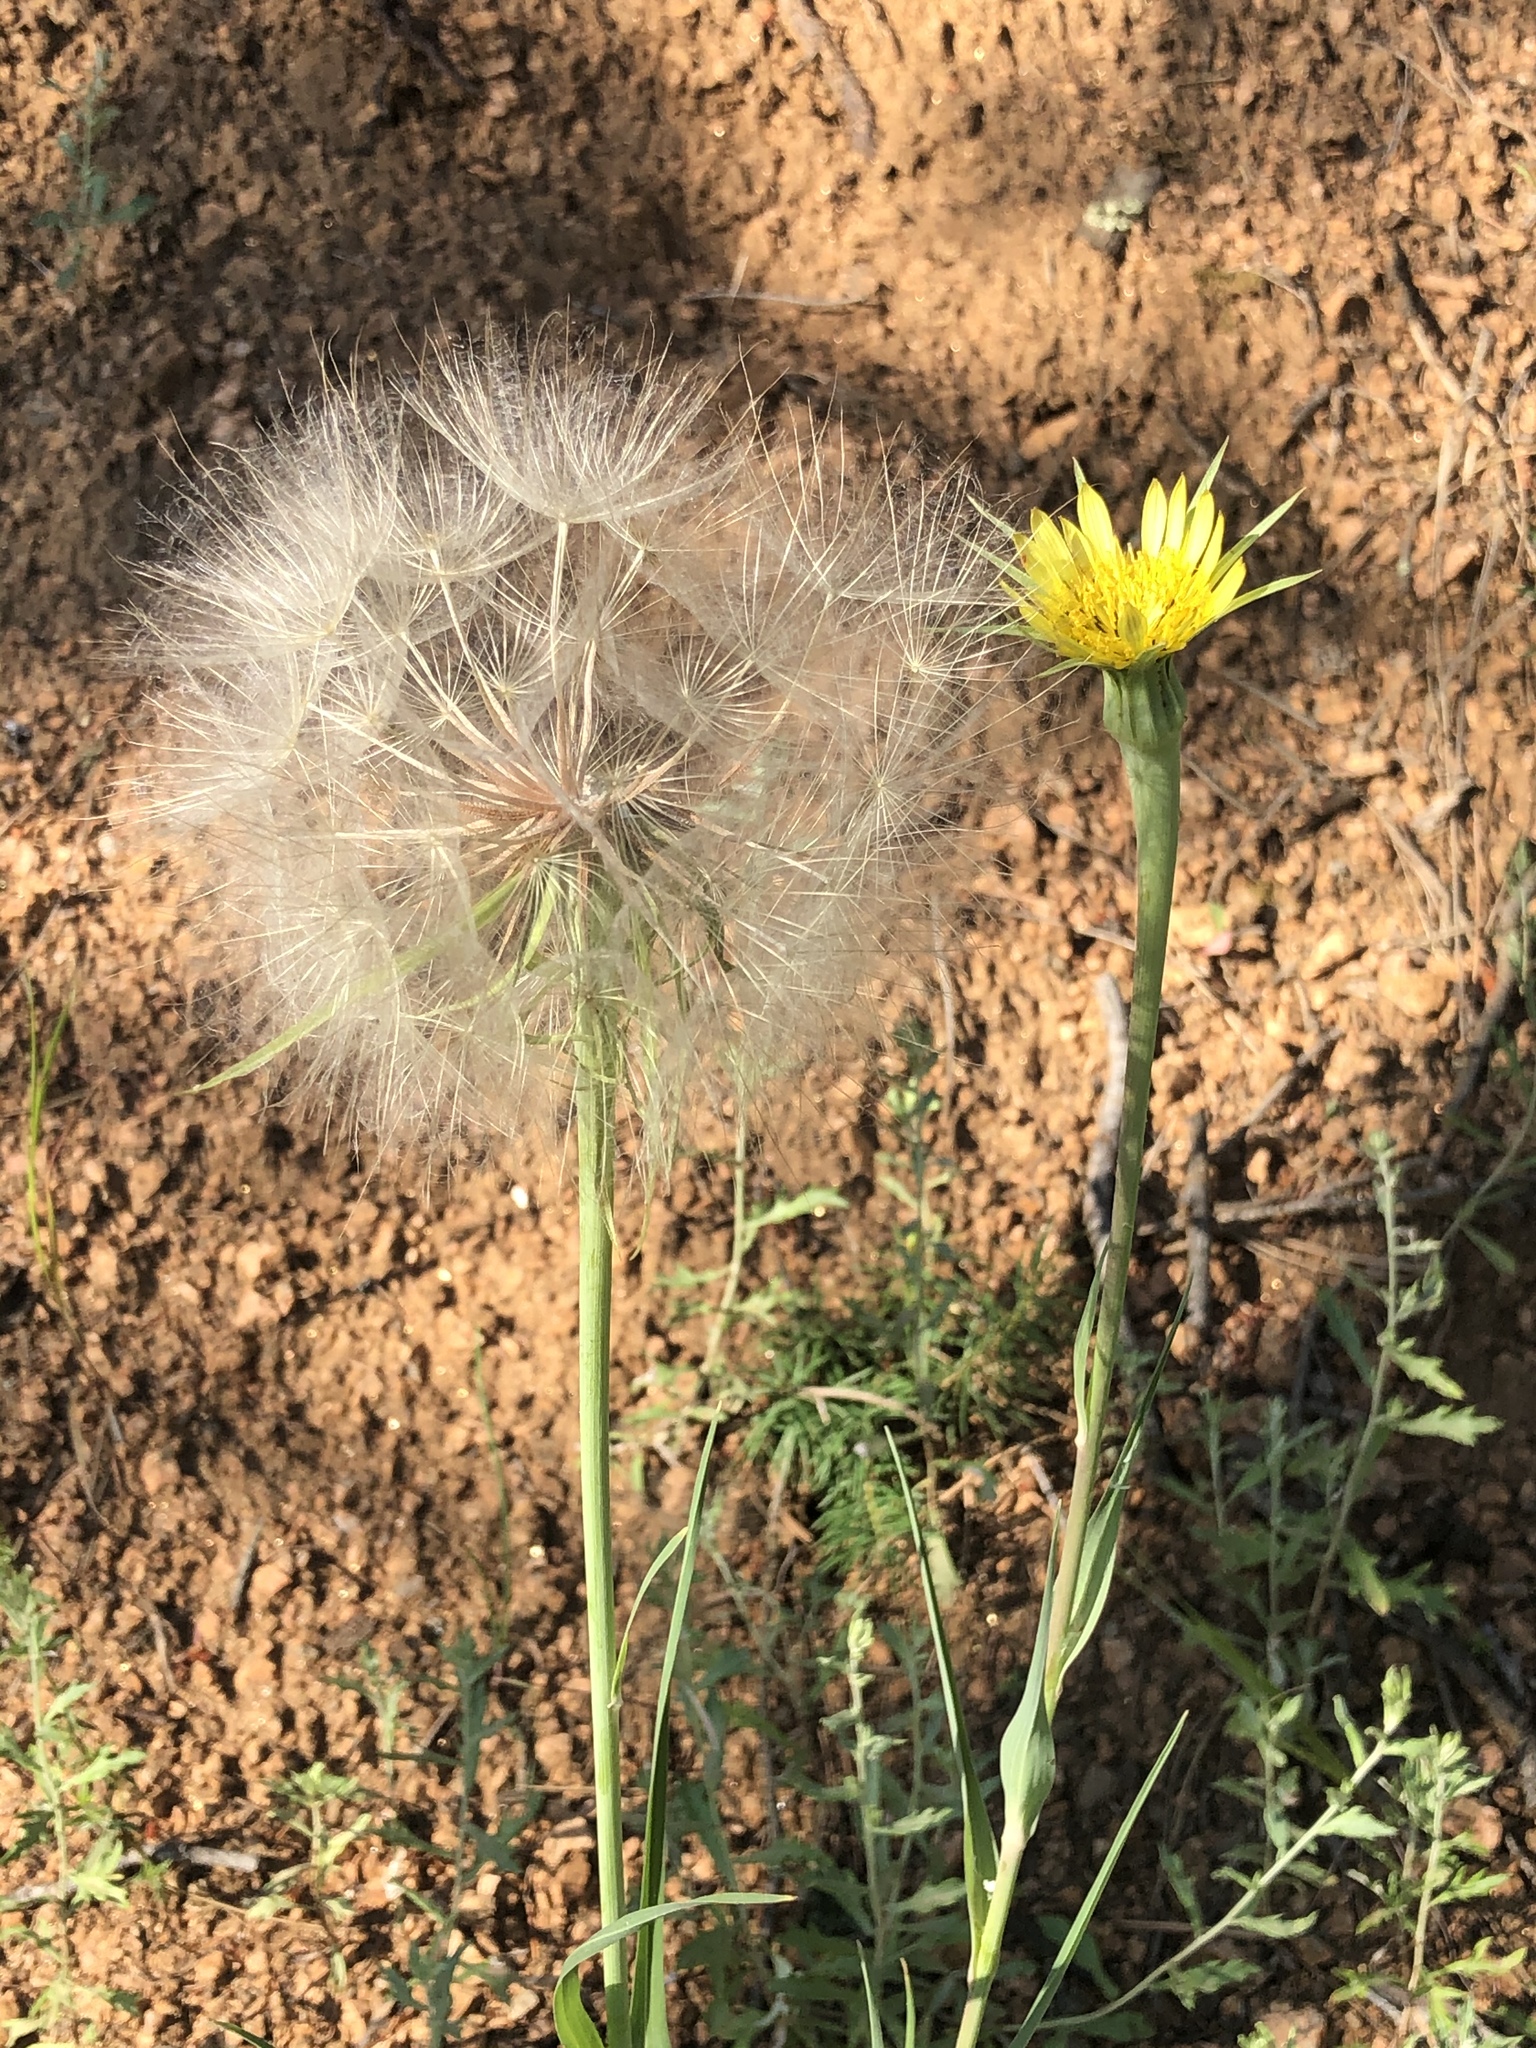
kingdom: Plantae
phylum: Tracheophyta
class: Magnoliopsida
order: Asterales
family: Asteraceae
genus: Tragopogon
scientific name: Tragopogon dubius
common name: Yellow salsify
